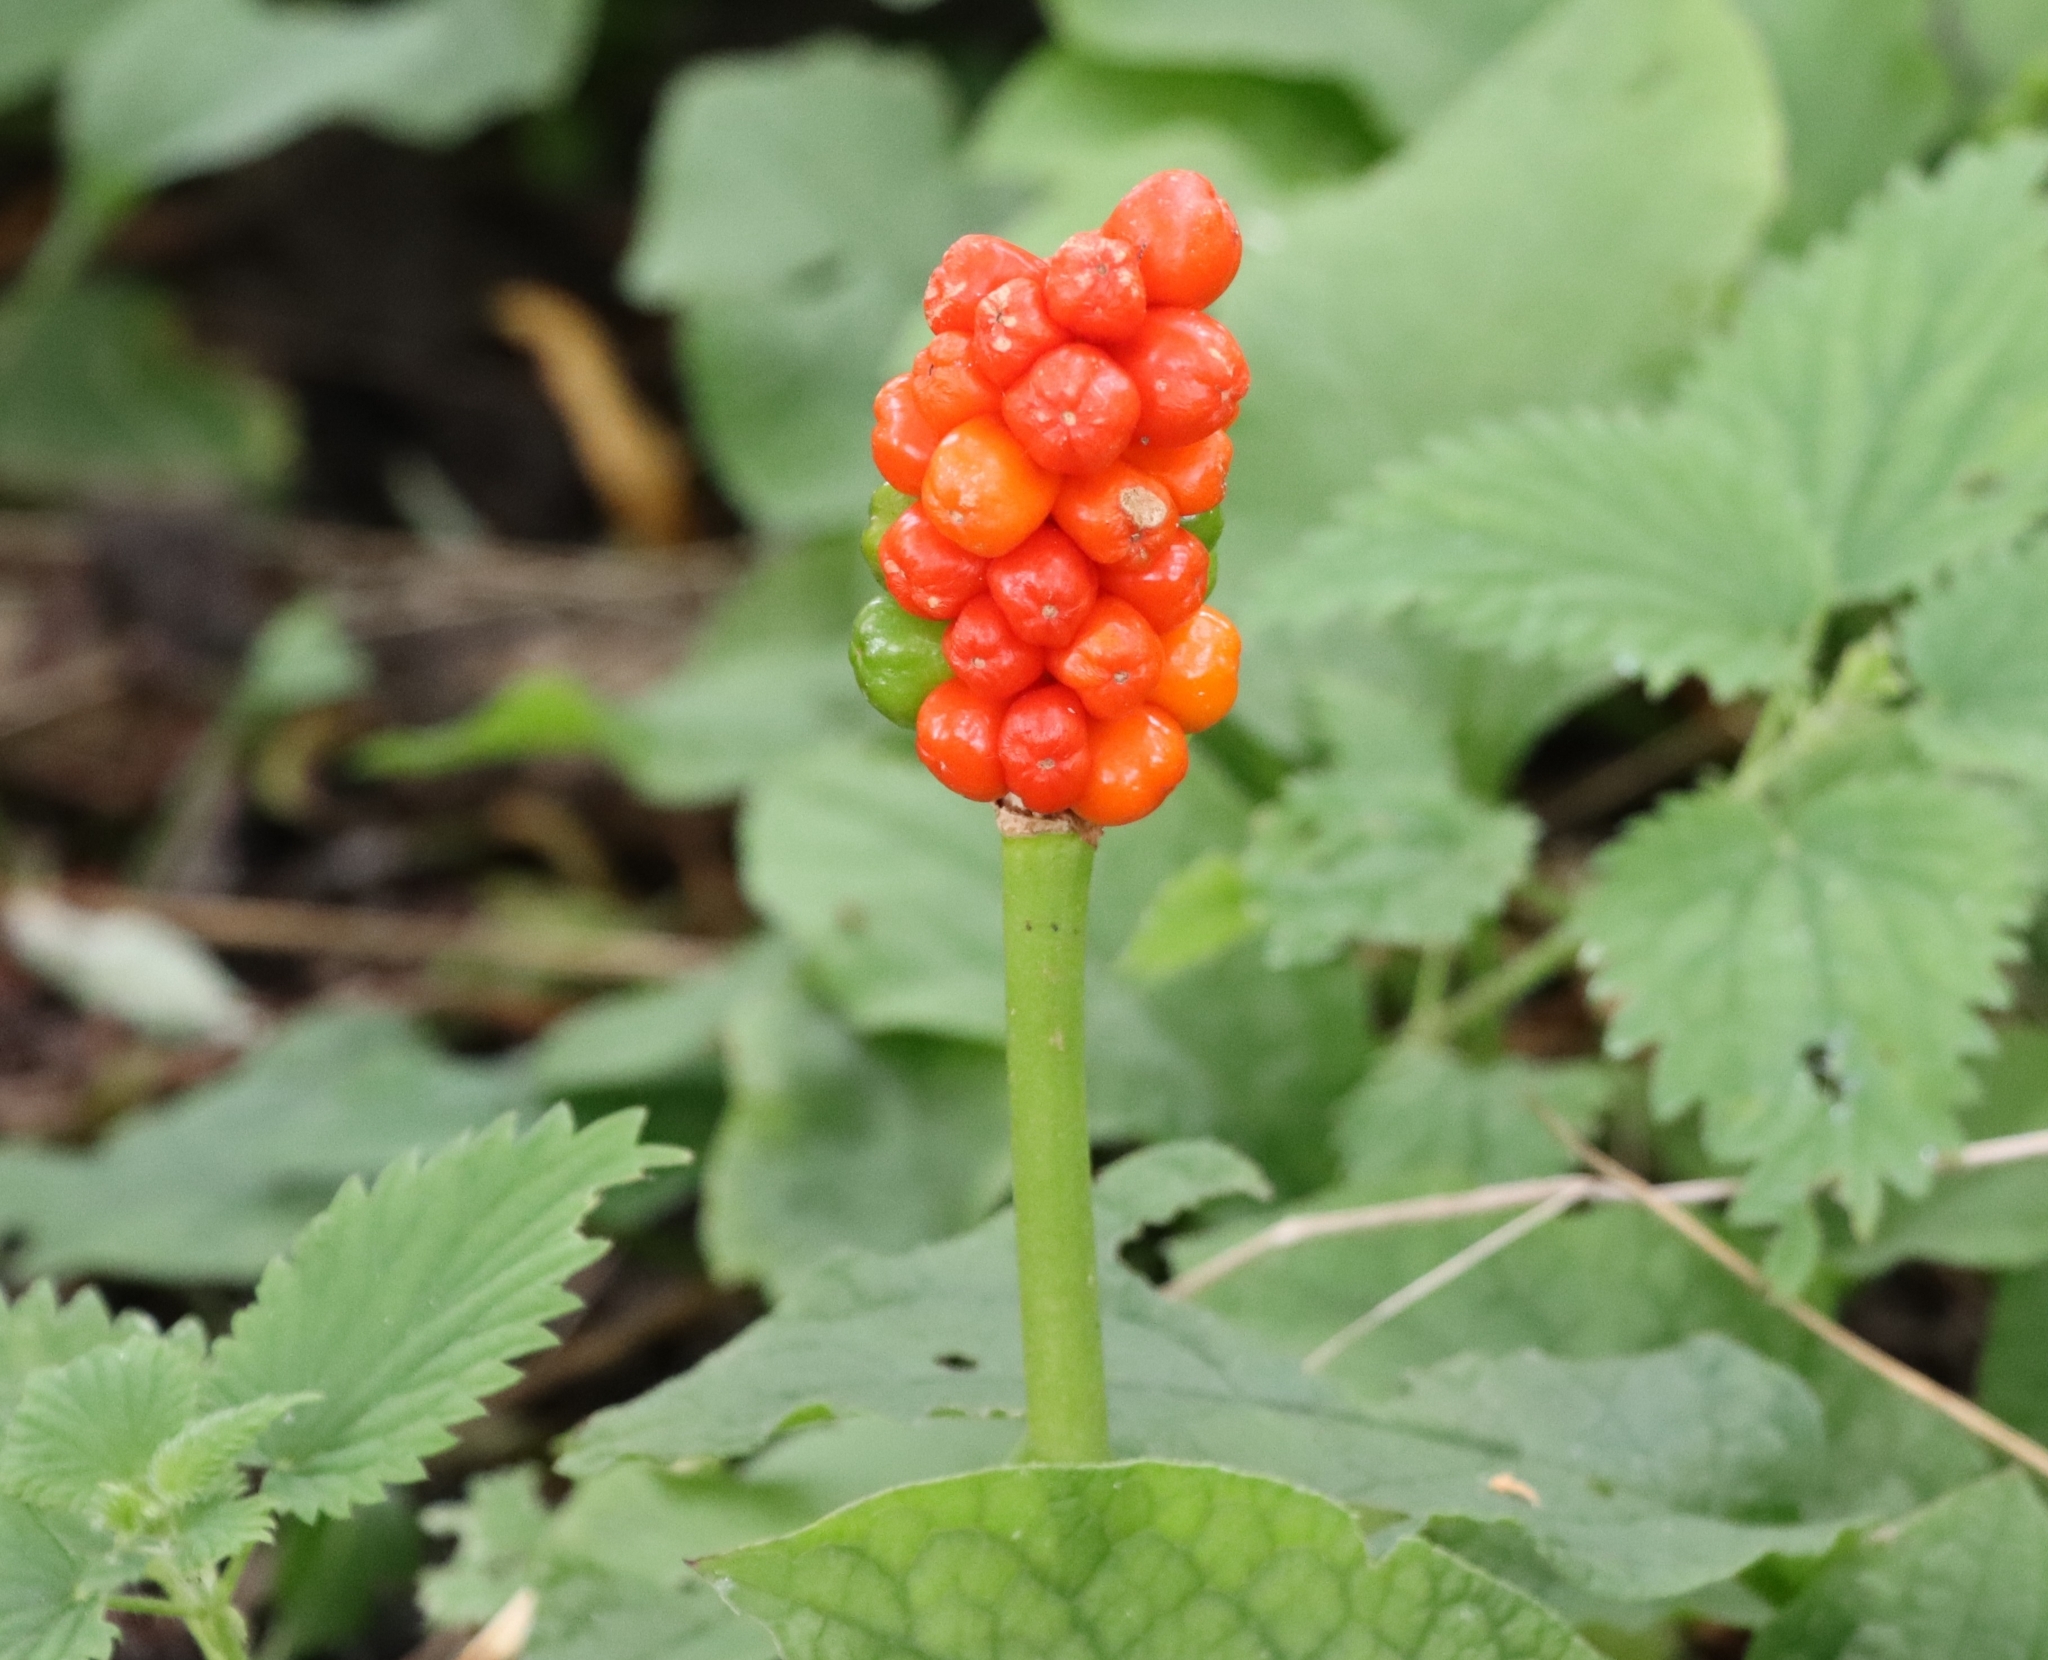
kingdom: Plantae
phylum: Tracheophyta
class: Liliopsida
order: Alismatales
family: Araceae
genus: Arum
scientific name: Arum maculatum
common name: Lords-and-ladies
